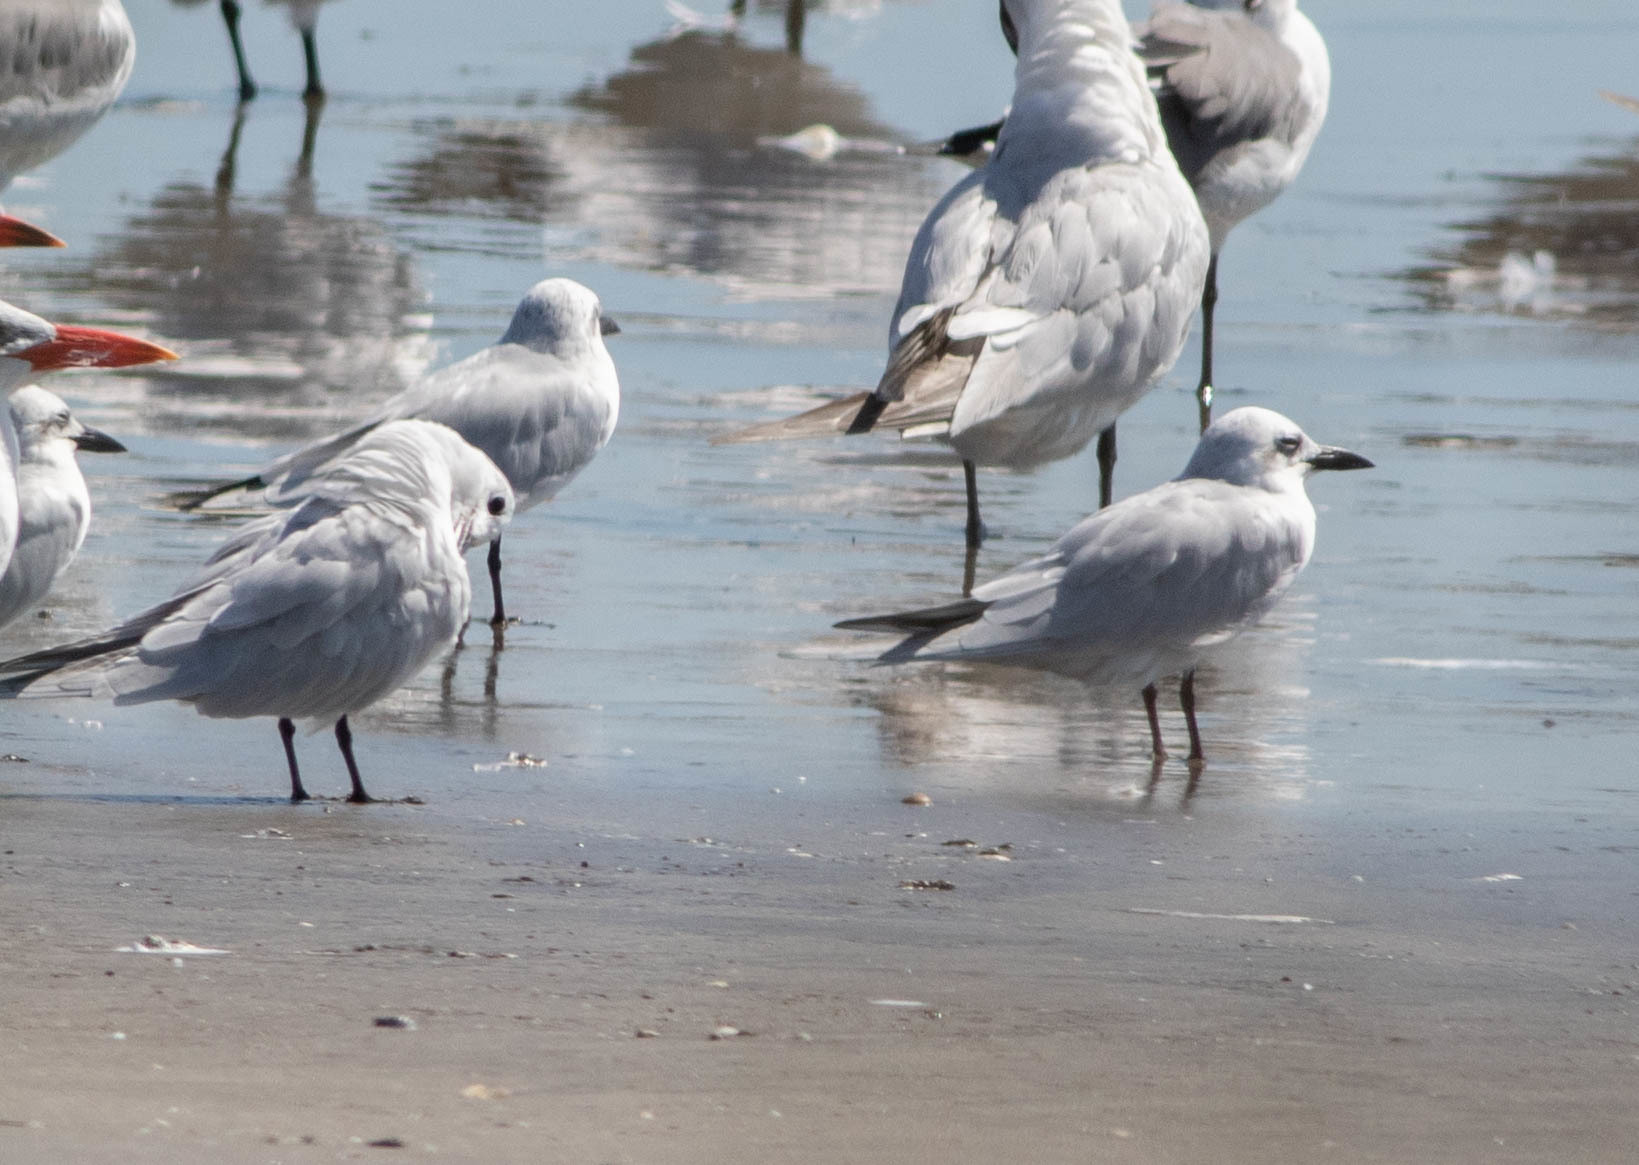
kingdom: Animalia
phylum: Chordata
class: Aves
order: Charadriiformes
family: Laridae
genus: Gelochelidon
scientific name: Gelochelidon nilotica
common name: Gull-billed tern
